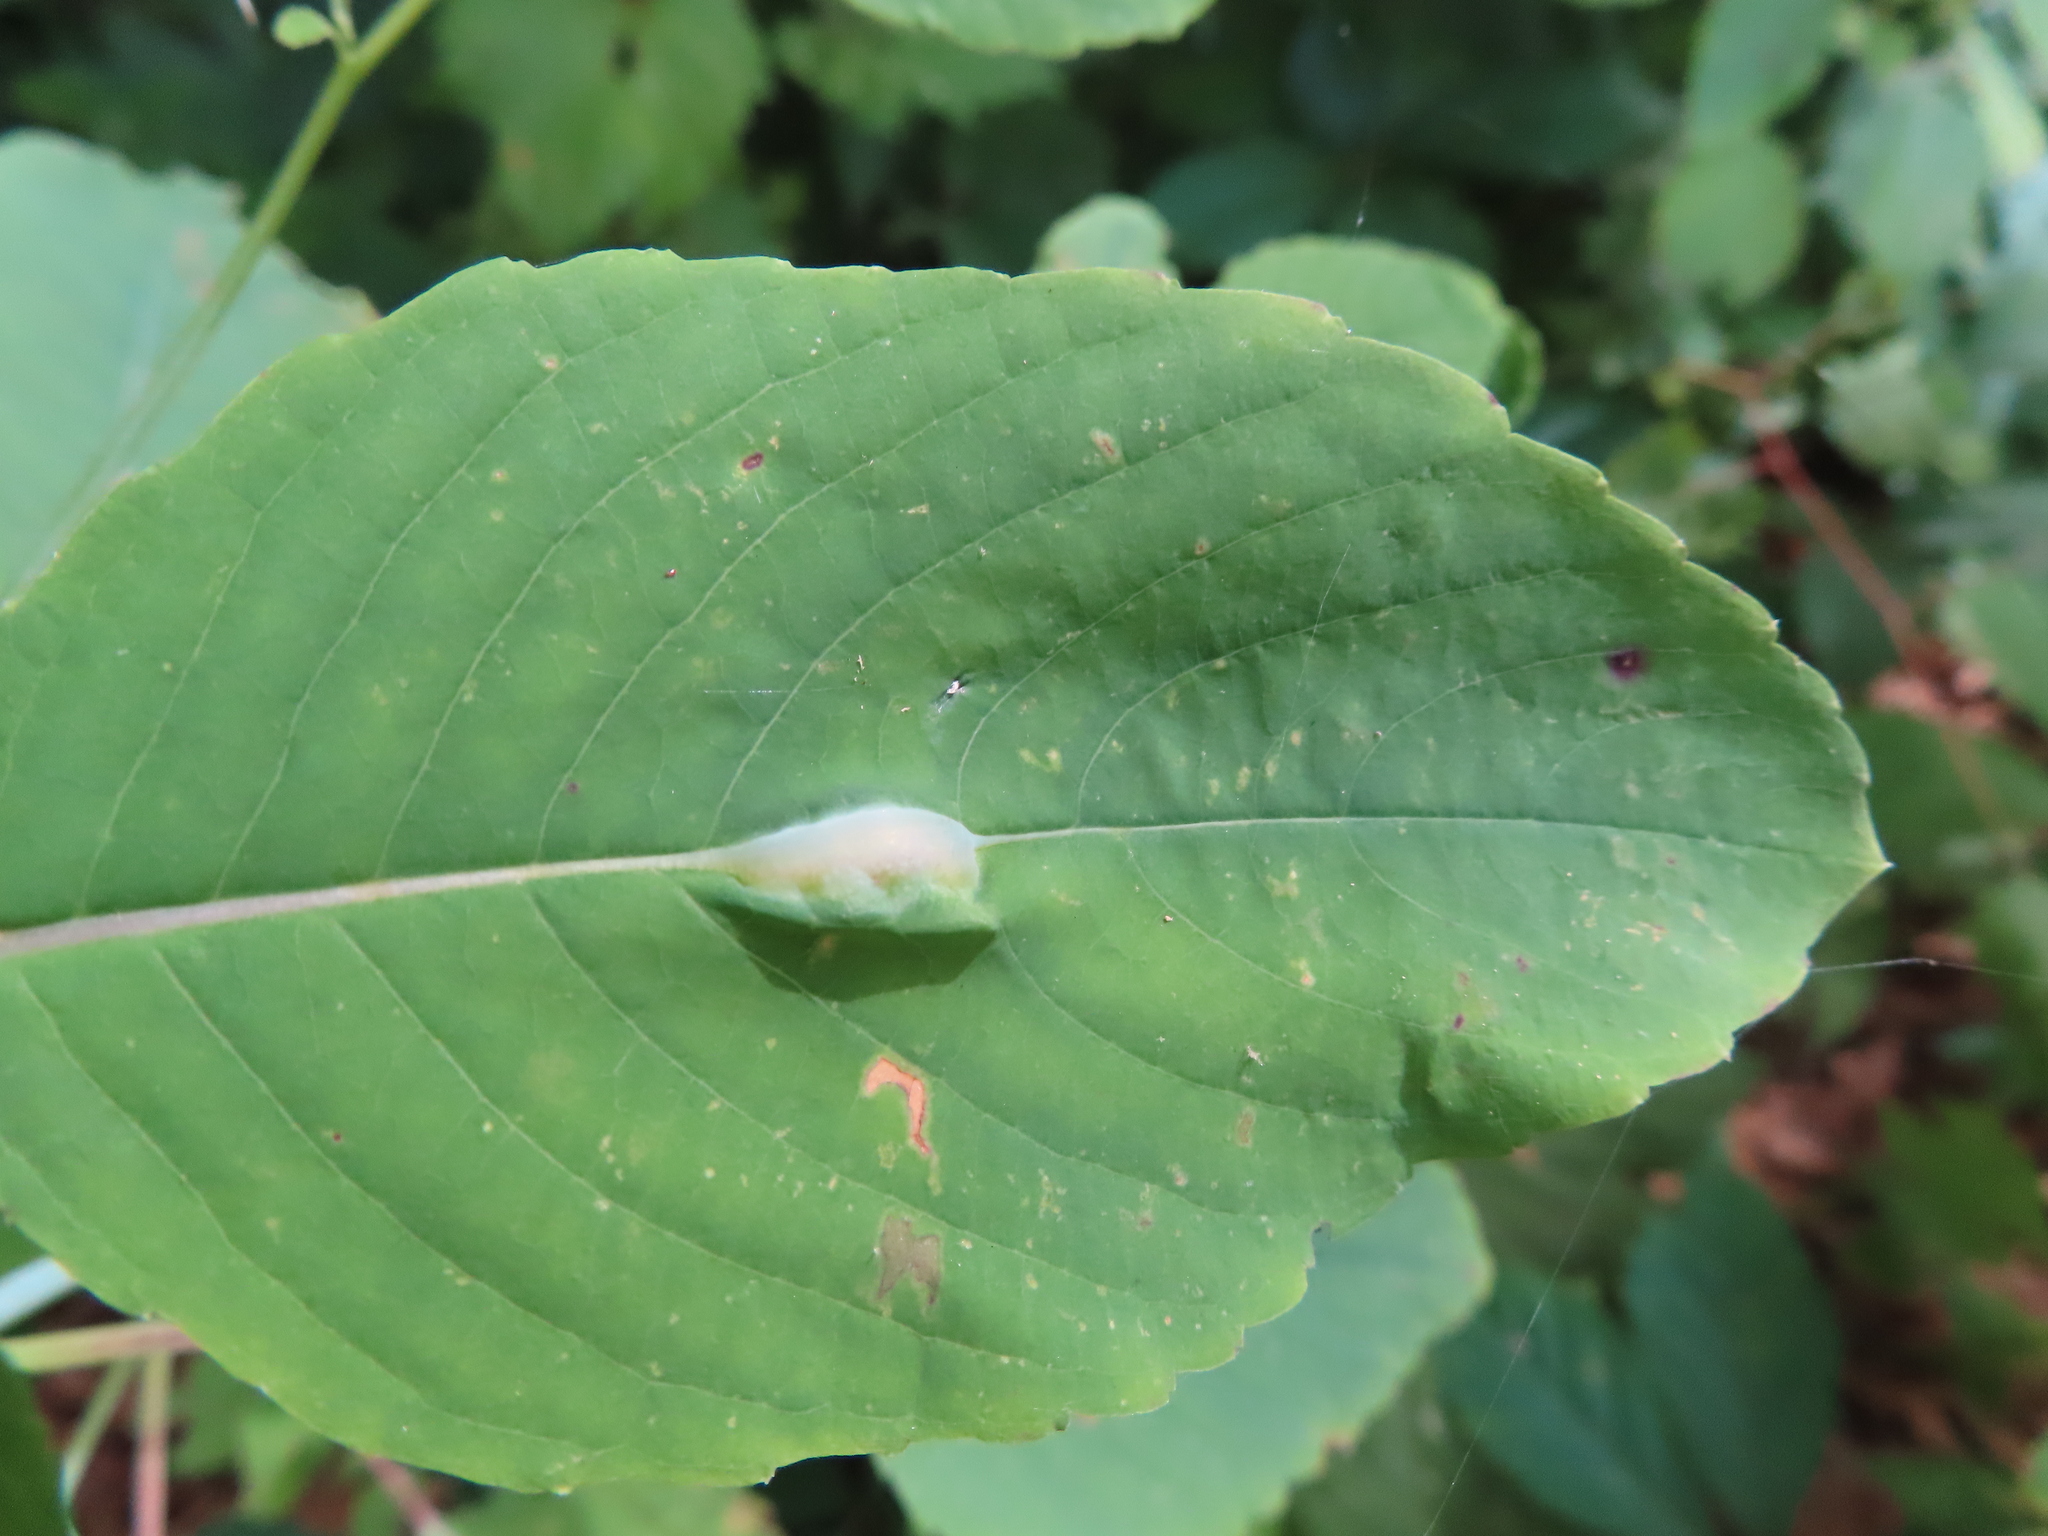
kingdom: Animalia
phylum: Arthropoda
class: Insecta
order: Diptera
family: Cecidomyiidae
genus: Neolasioptera
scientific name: Neolasioptera impatientifolia
